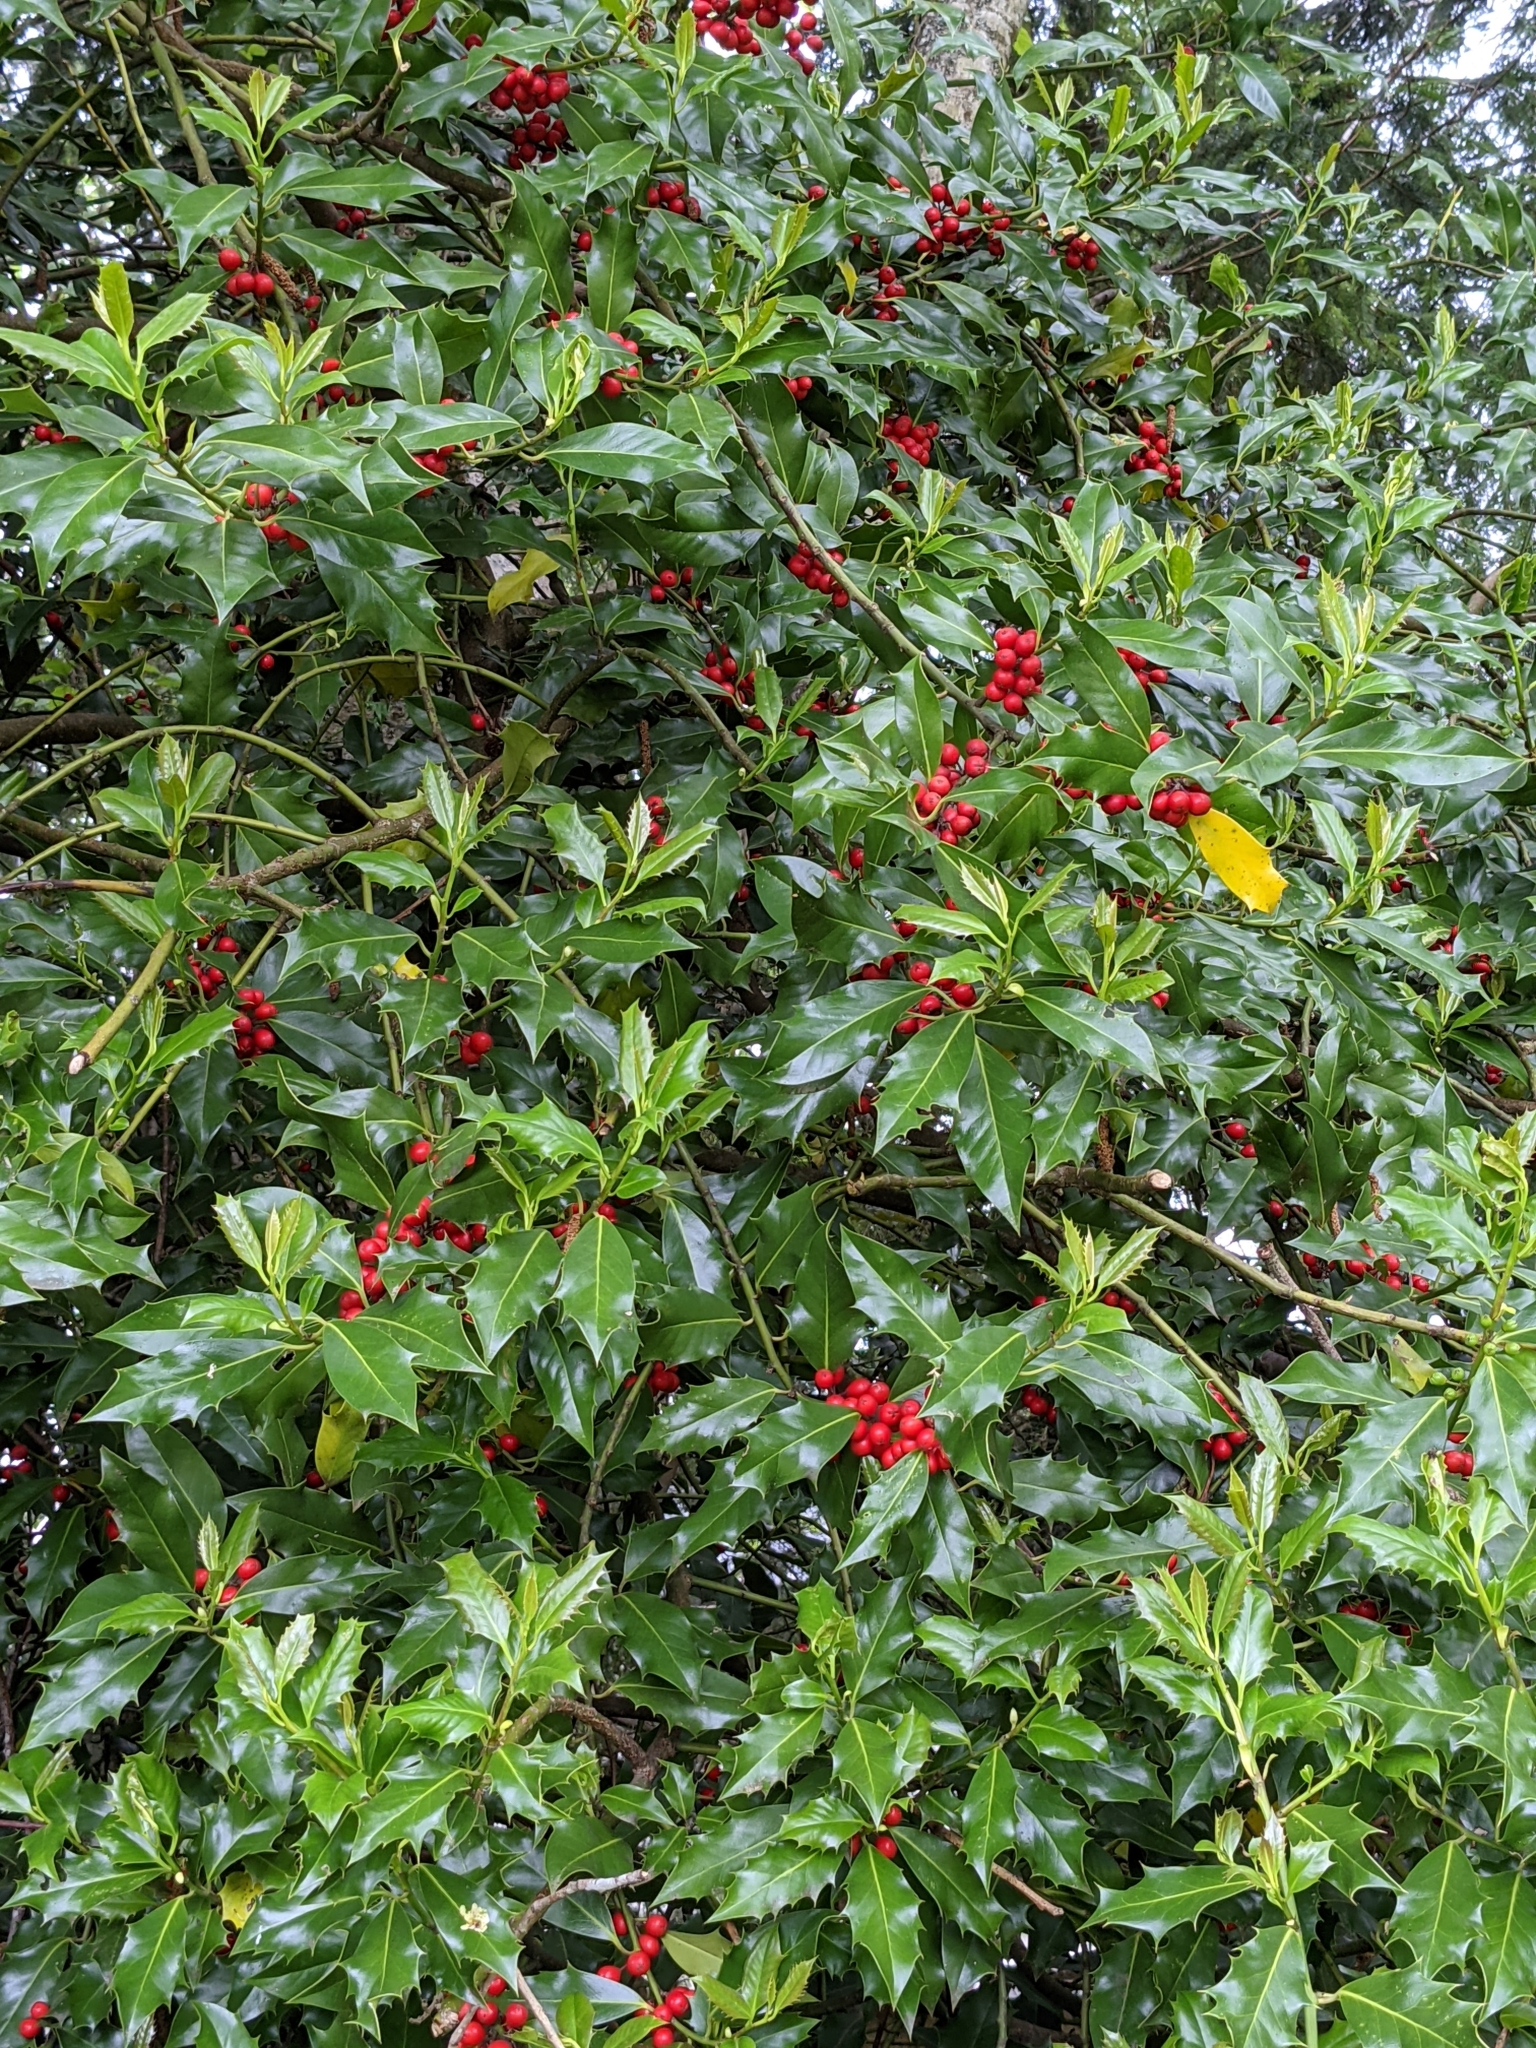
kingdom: Plantae
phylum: Tracheophyta
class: Magnoliopsida
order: Aquifoliales
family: Aquifoliaceae
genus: Ilex
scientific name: Ilex aquifolium
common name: English holly
